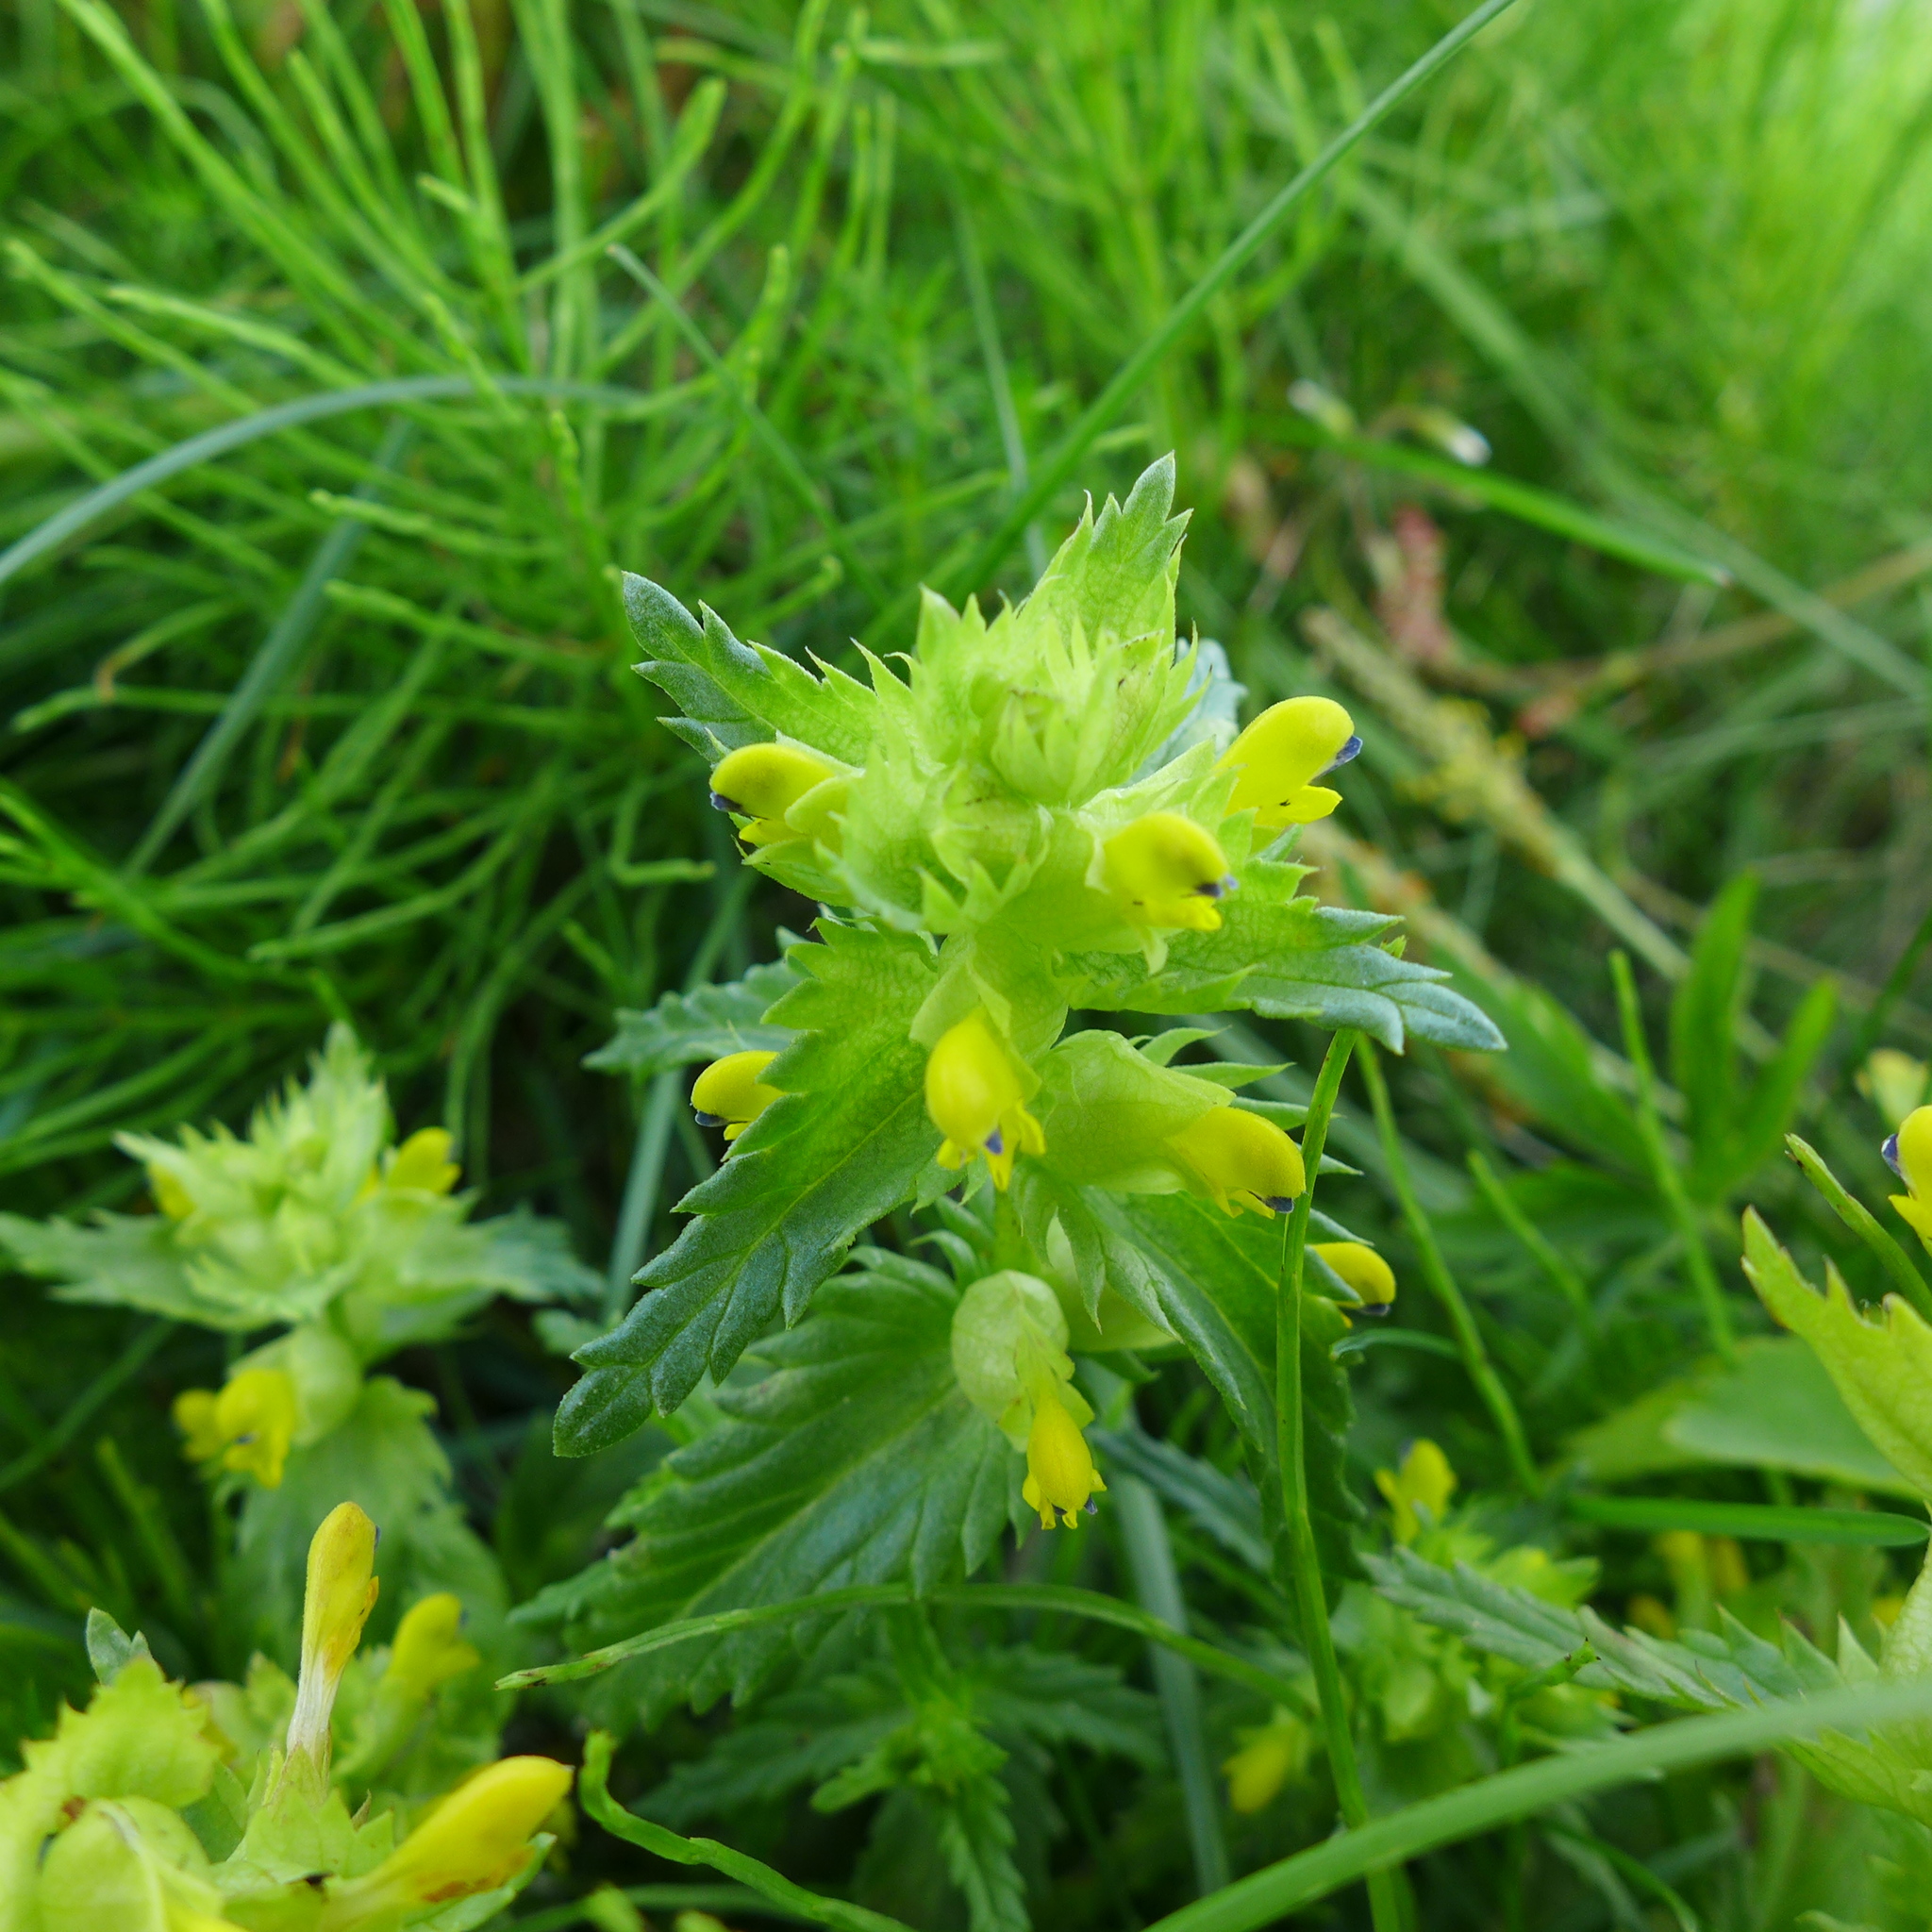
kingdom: Plantae
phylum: Tracheophyta
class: Magnoliopsida
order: Lamiales
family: Orobanchaceae
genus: Rhinanthus
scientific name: Rhinanthus minor
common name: Yellow-rattle
